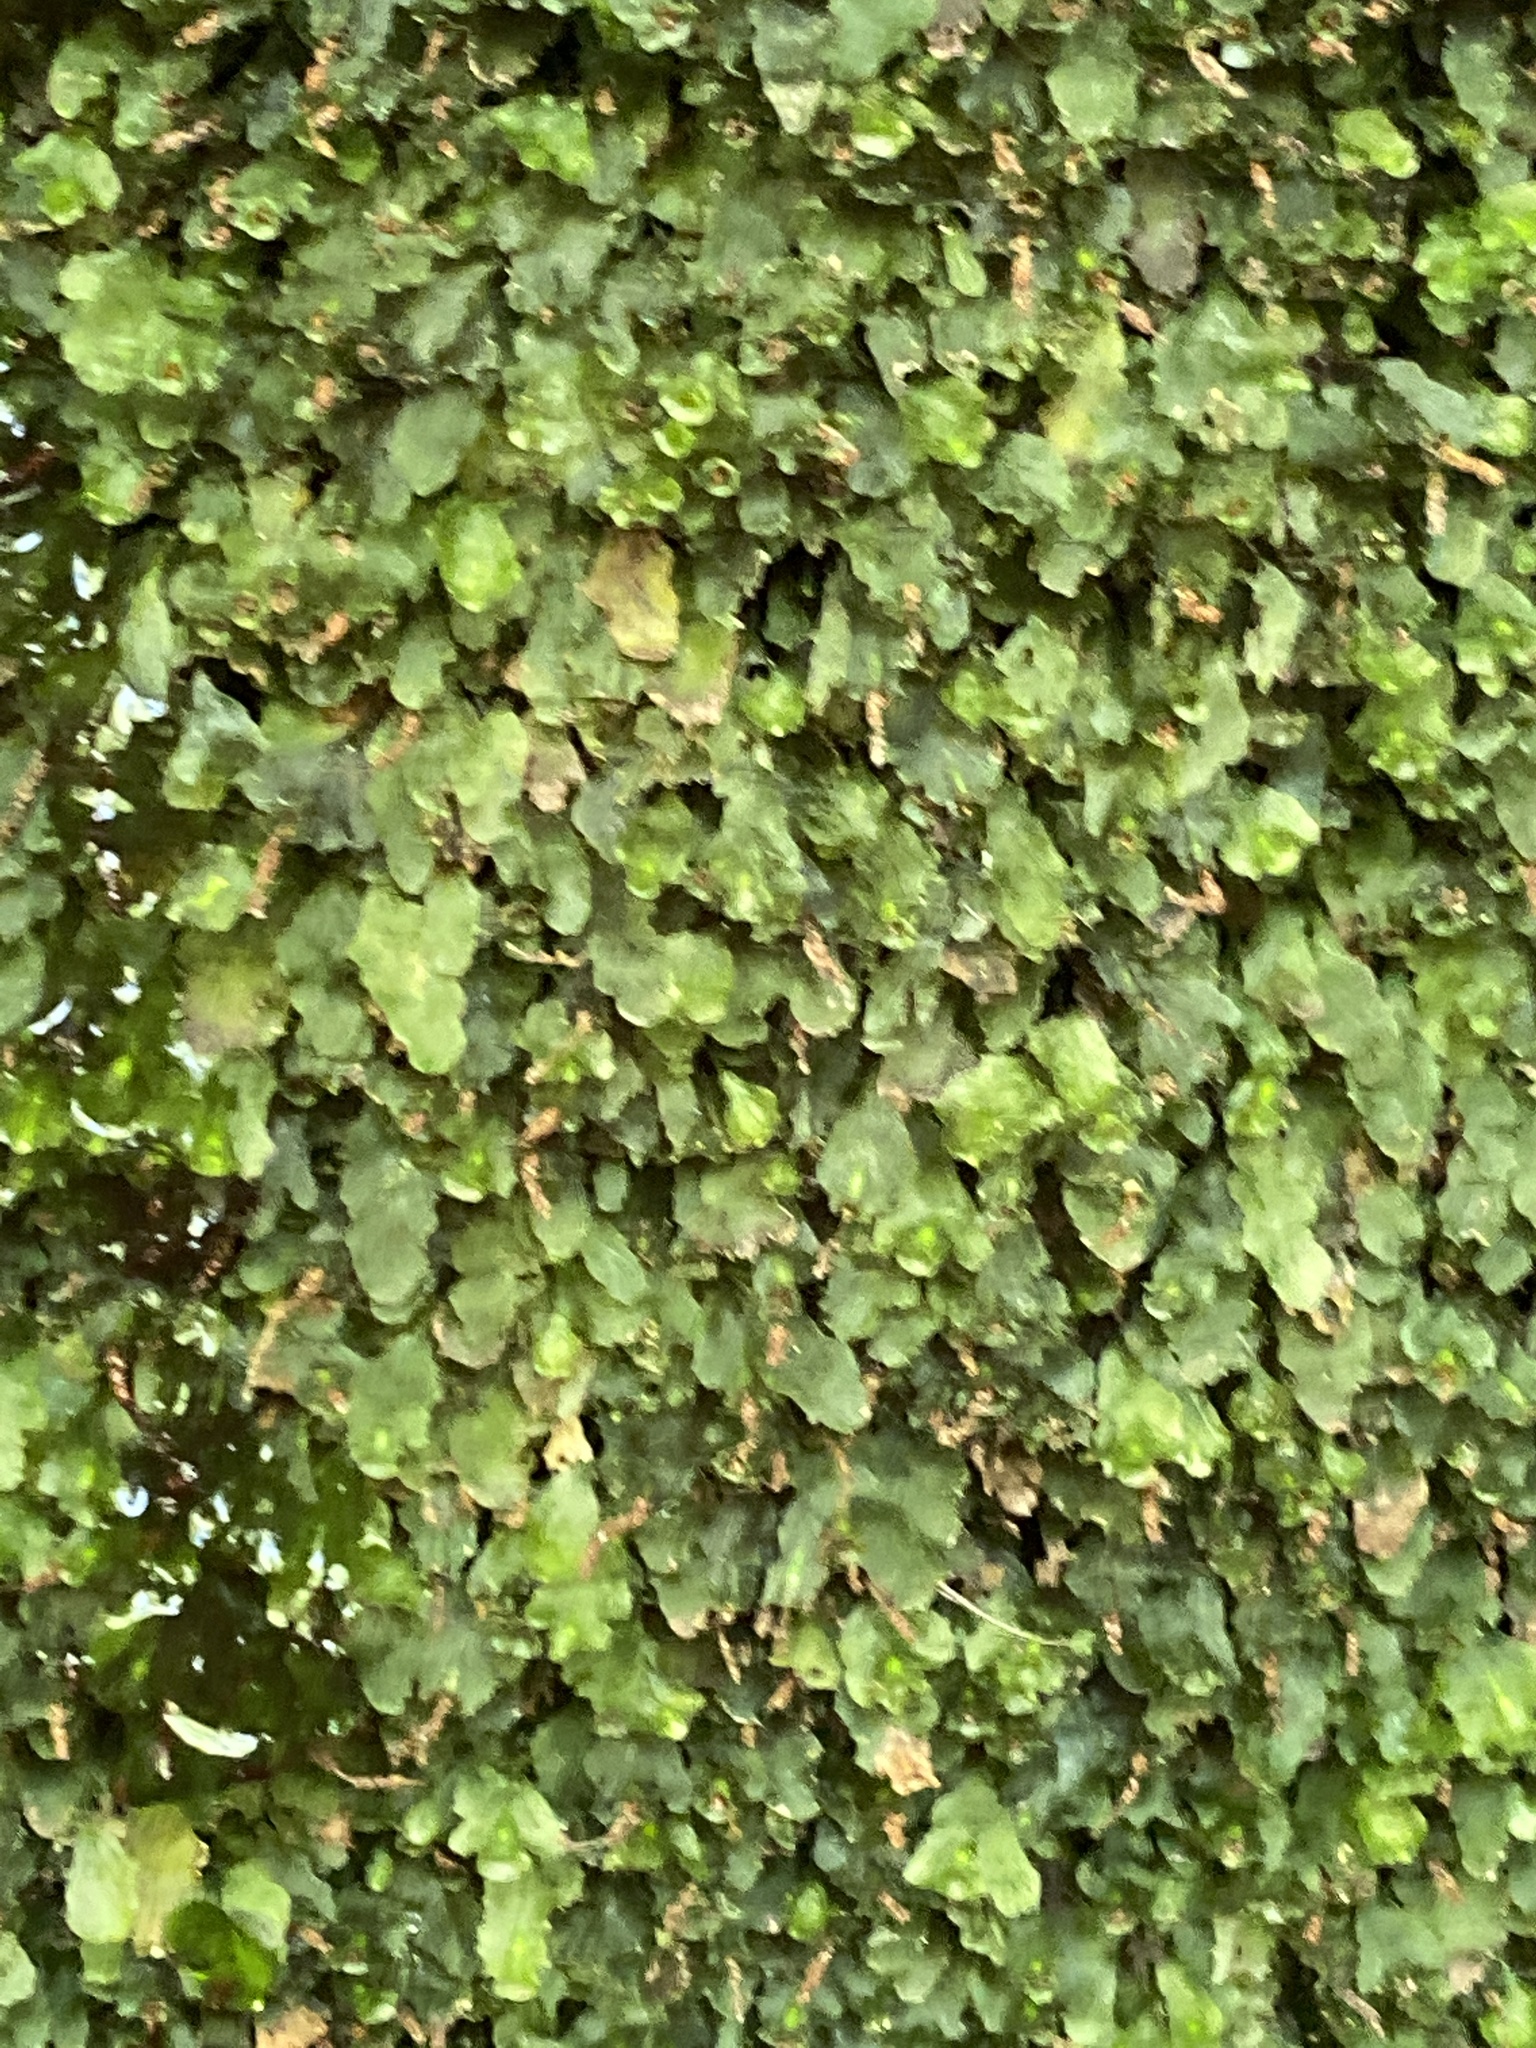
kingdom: Plantae
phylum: Tracheophyta
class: Polypodiopsida
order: Hymenophyllales
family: Hymenophyllaceae
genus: Didymoglossum
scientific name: Didymoglossum petersii
